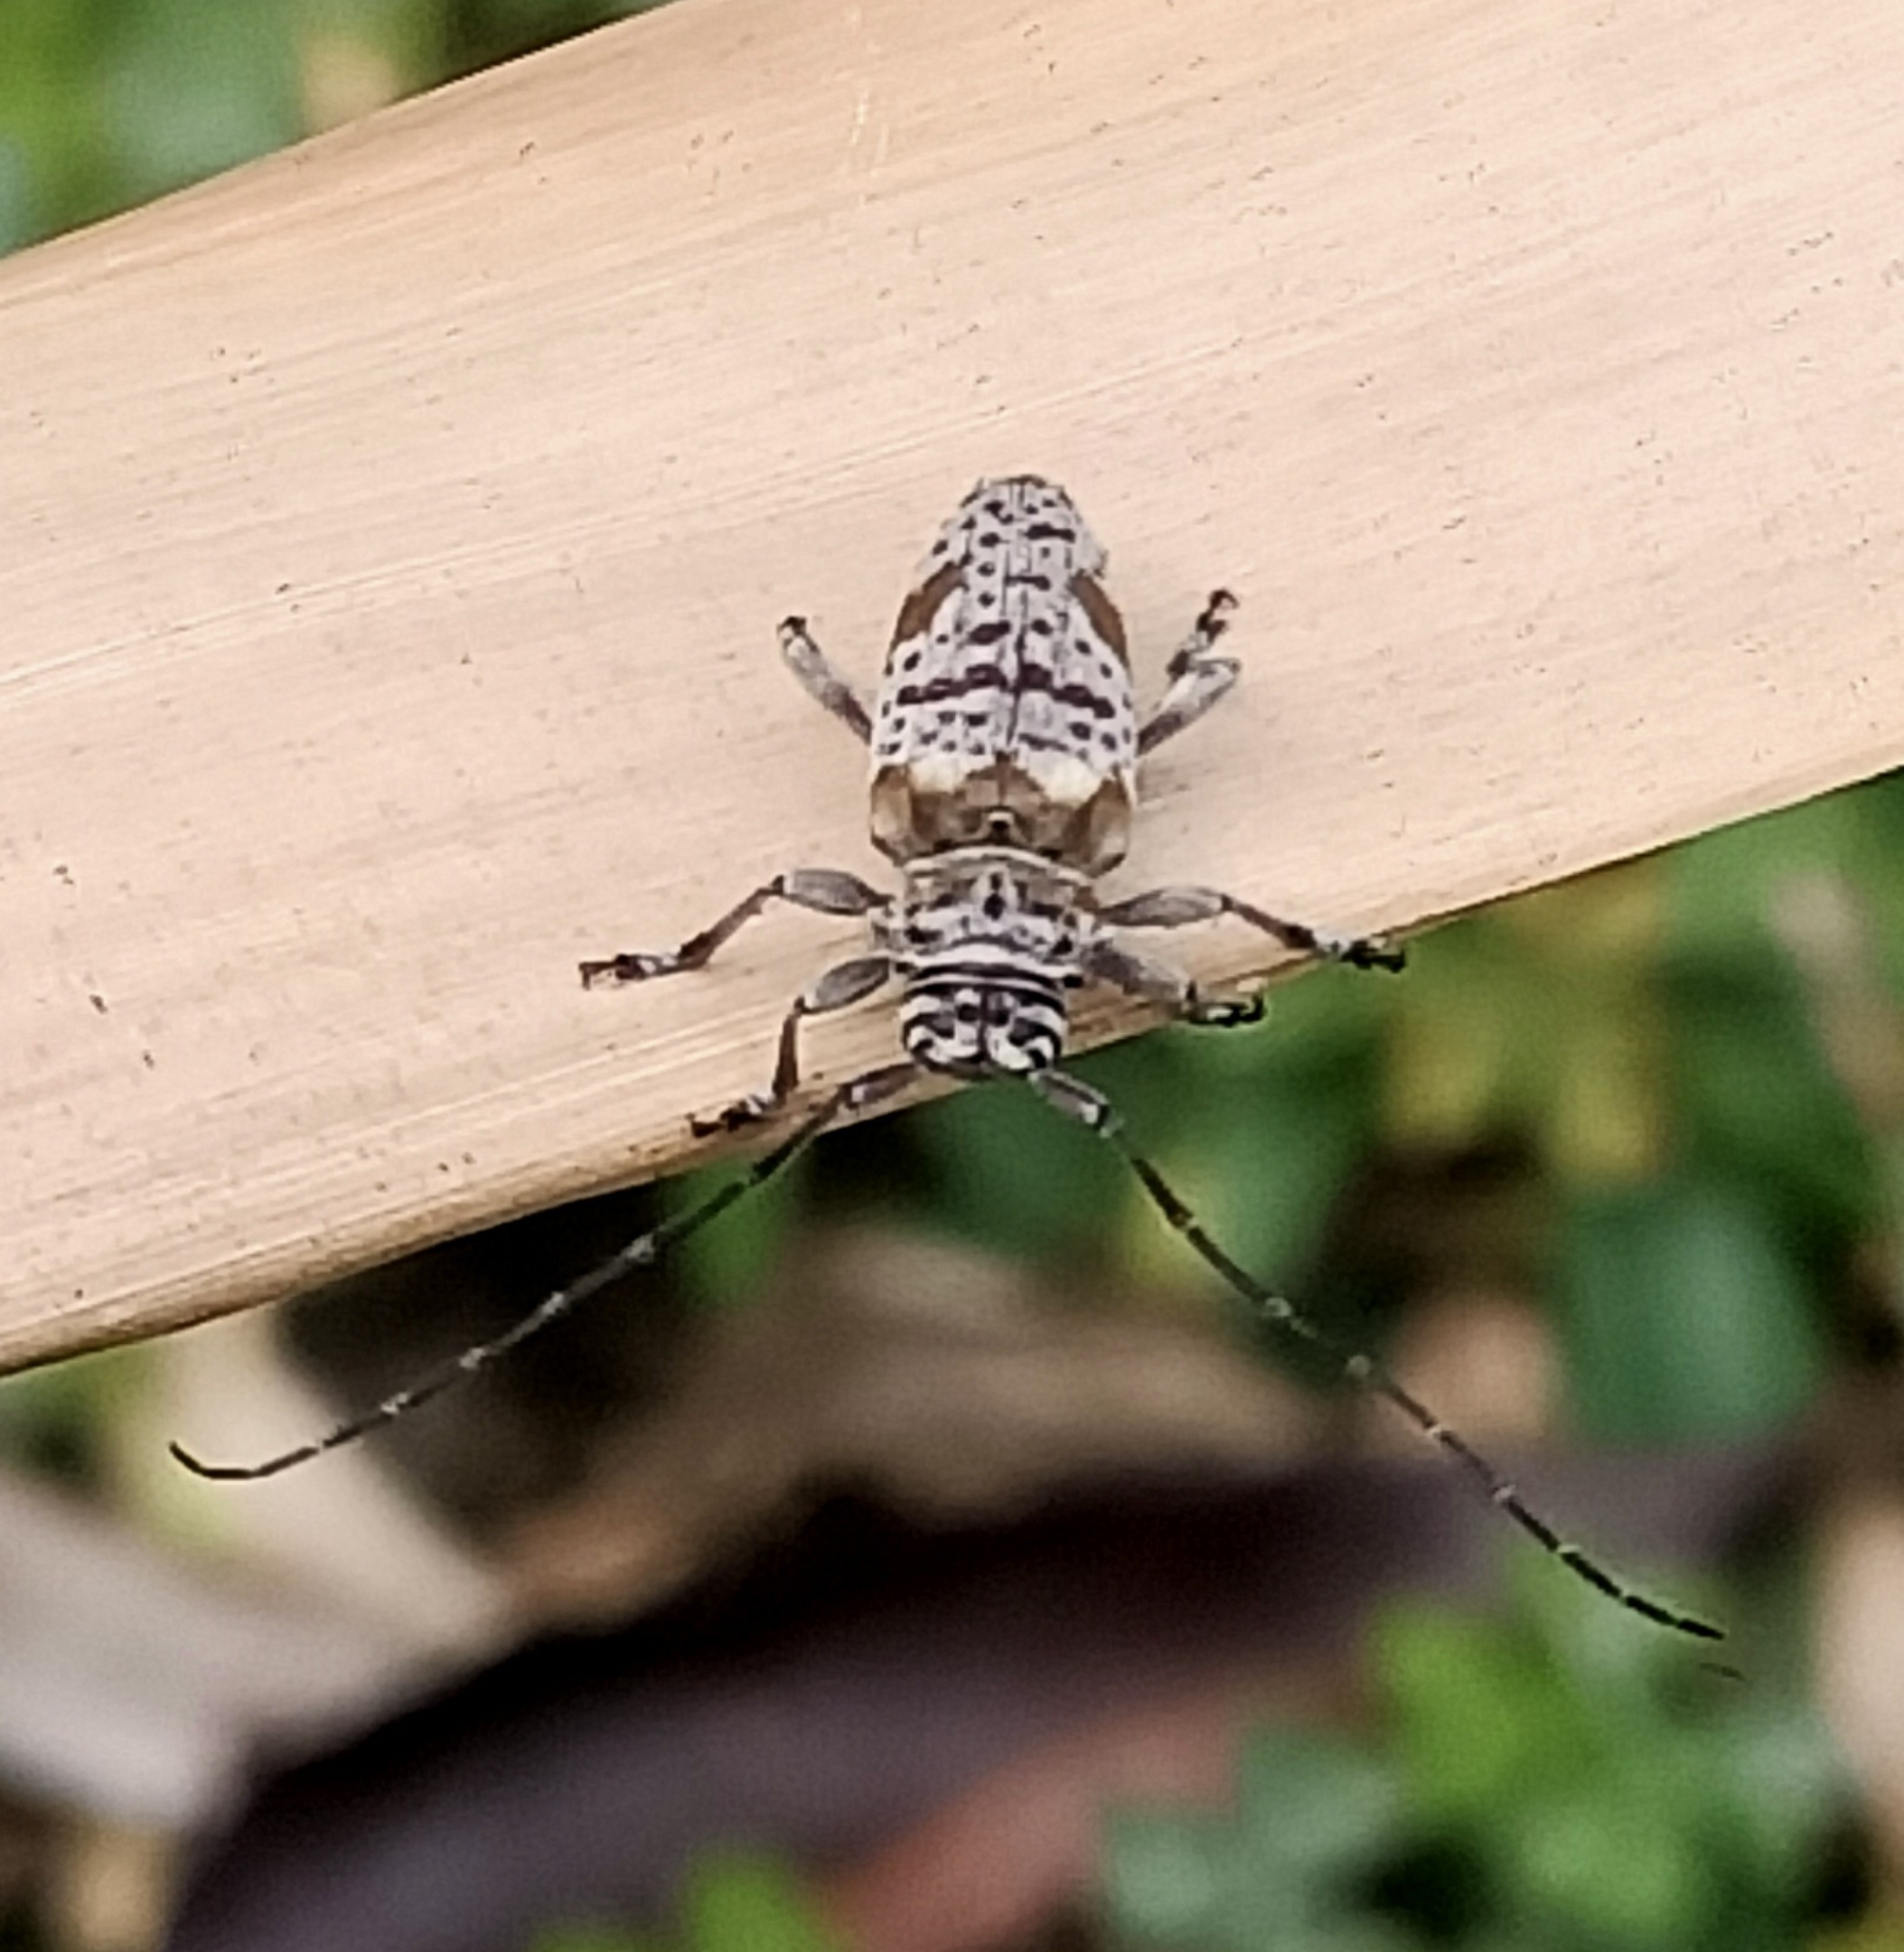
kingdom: Animalia
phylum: Arthropoda
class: Insecta
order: Coleoptera
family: Cerambycidae
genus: Disterna
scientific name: Disterna plumifera
